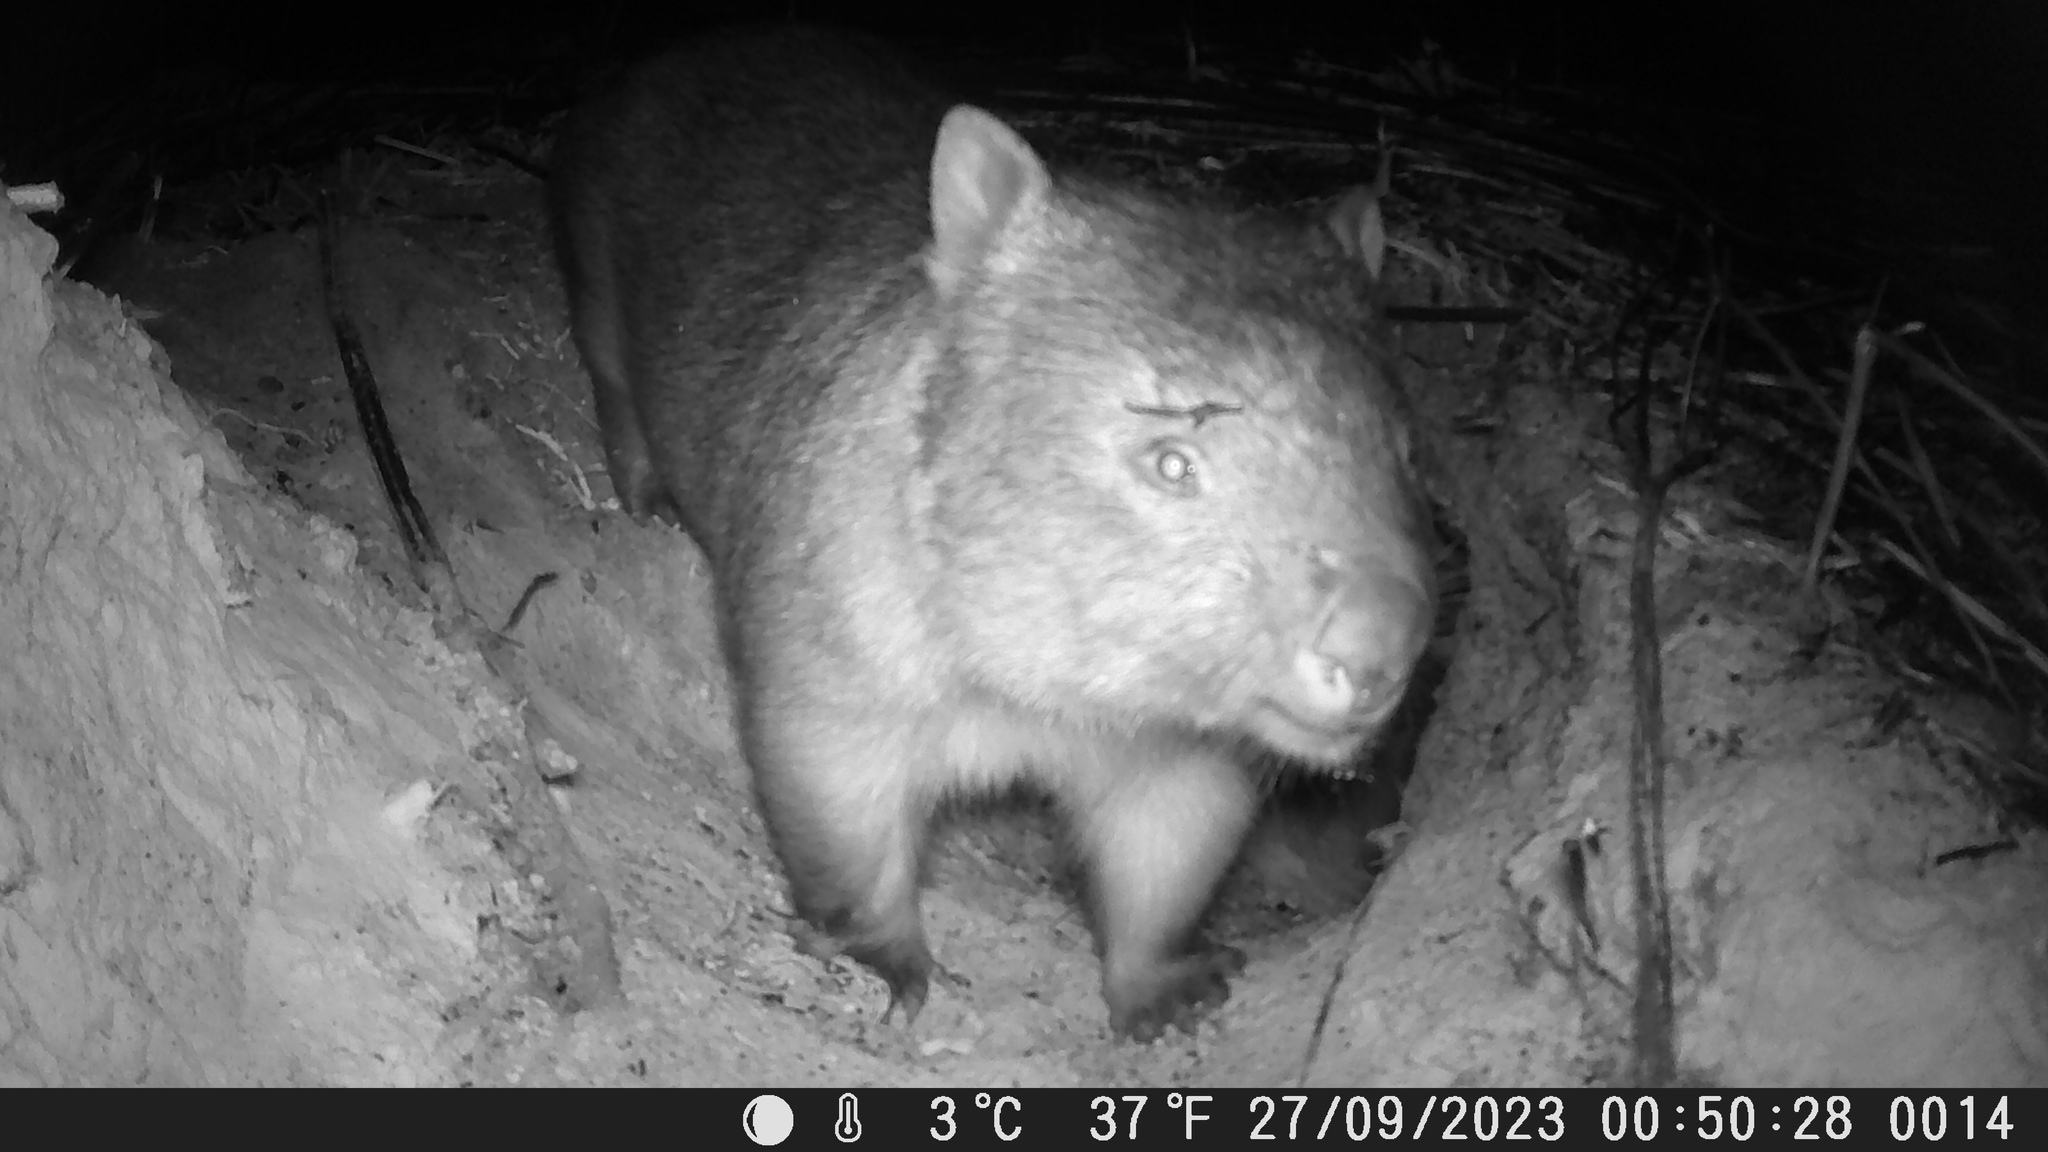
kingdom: Animalia
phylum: Chordata
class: Mammalia
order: Diprotodontia
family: Vombatidae
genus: Vombatus
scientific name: Vombatus ursinus
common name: Common wombat
